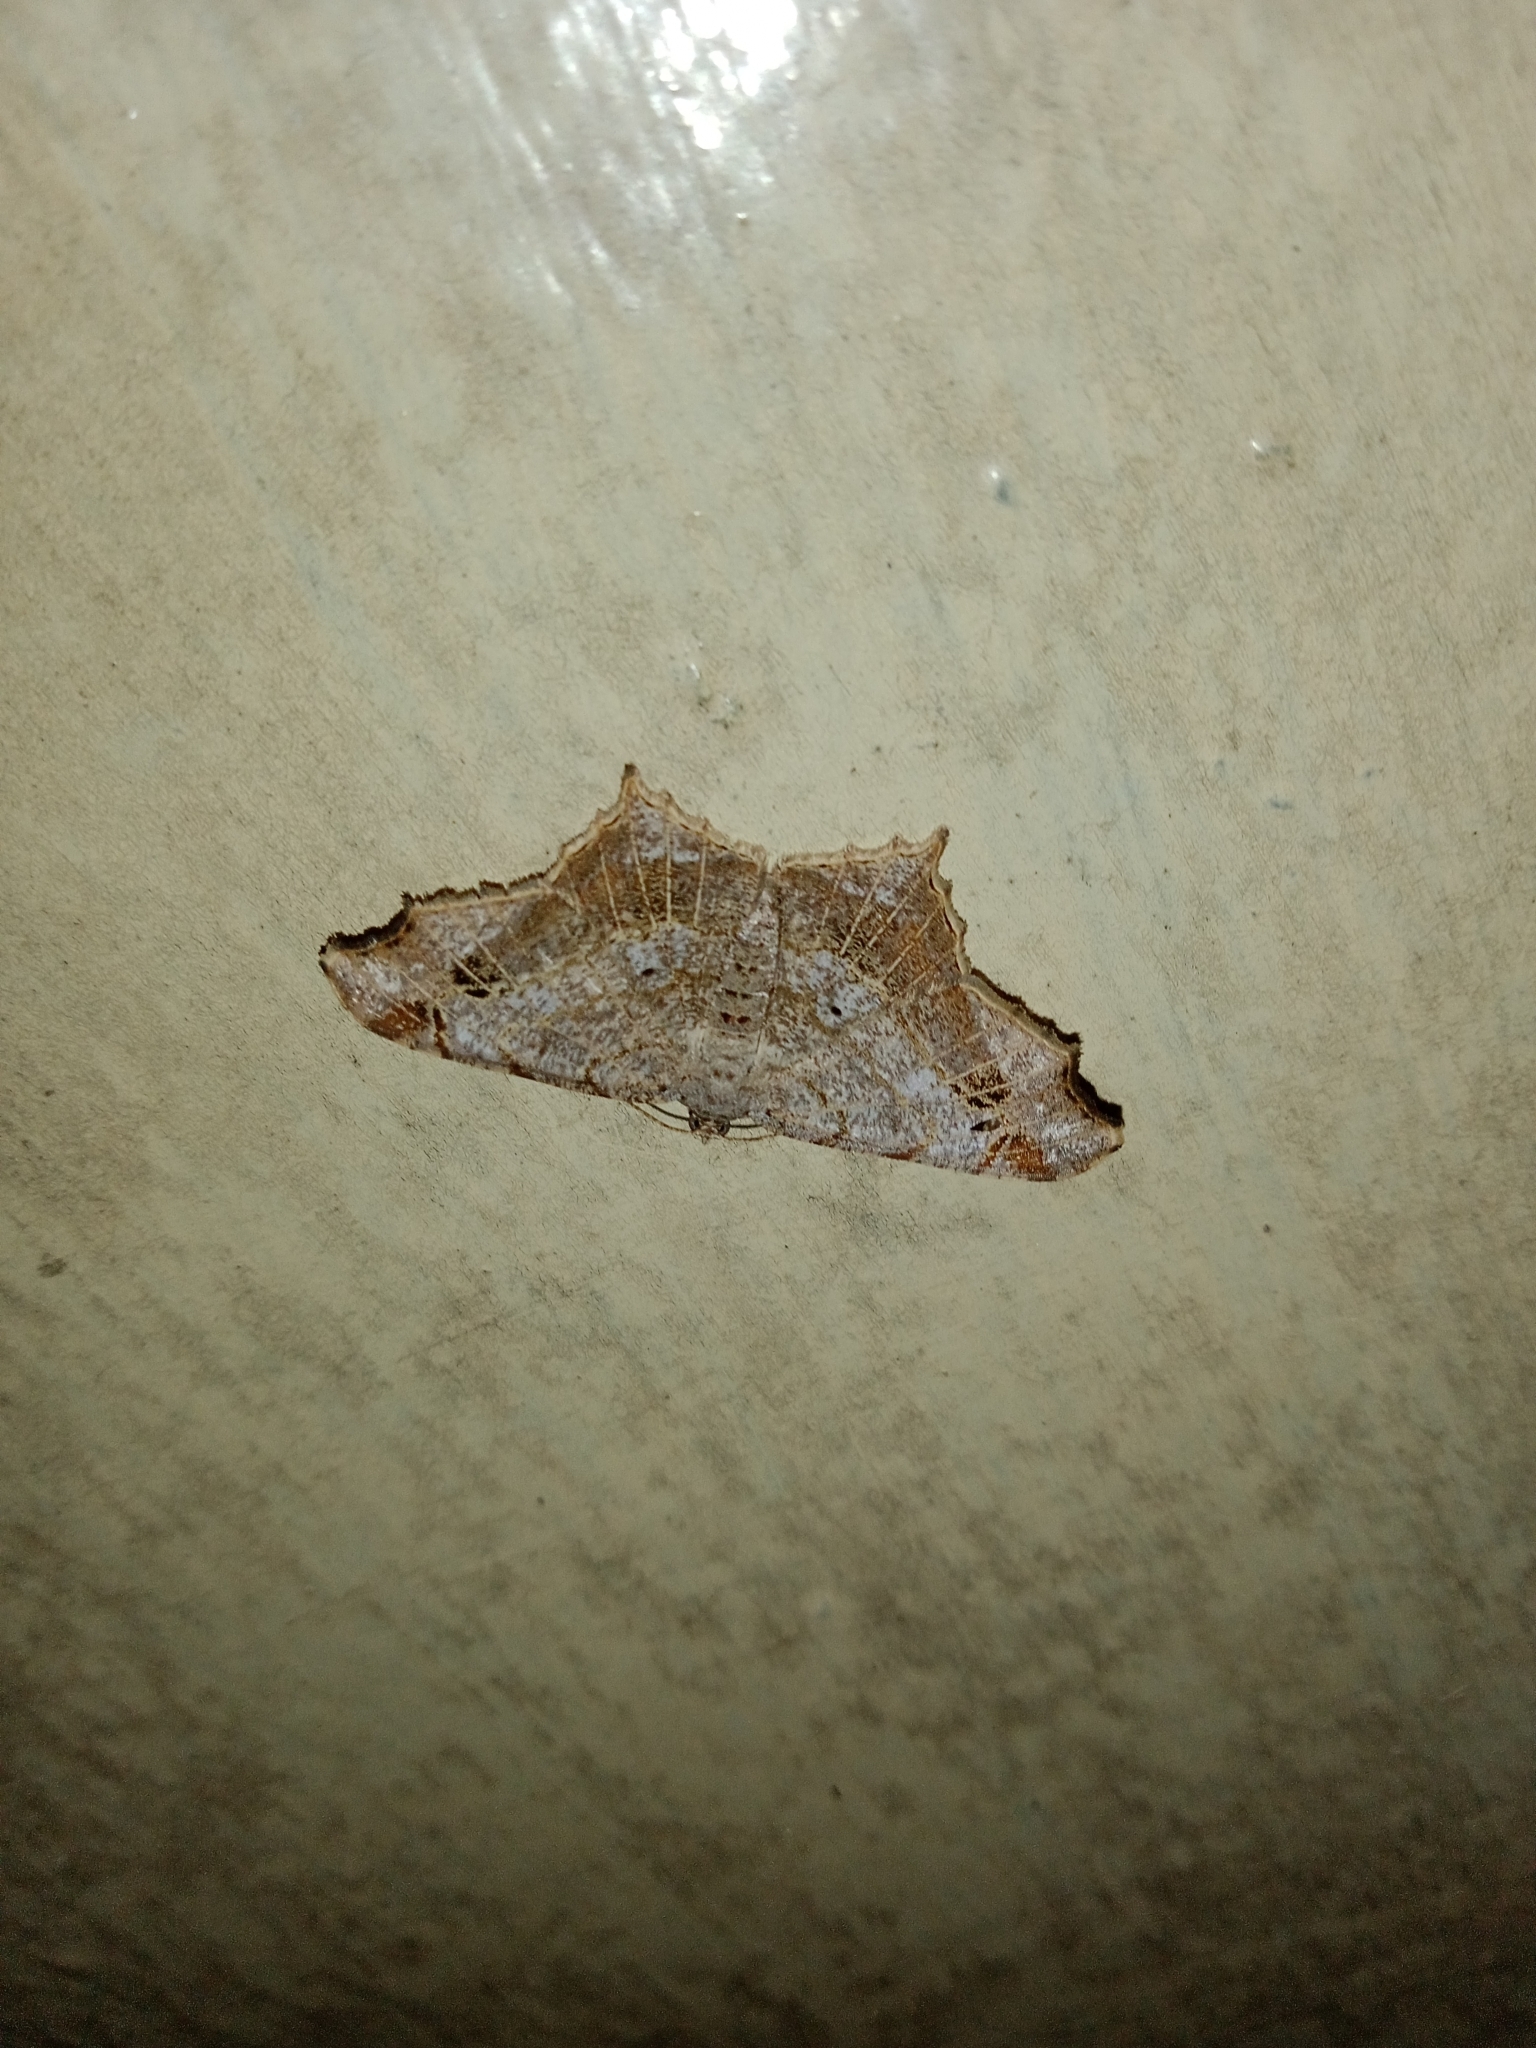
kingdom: Animalia
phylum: Arthropoda
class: Insecta
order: Lepidoptera
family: Geometridae
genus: Chiasmia
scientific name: Chiasmia emersaria
